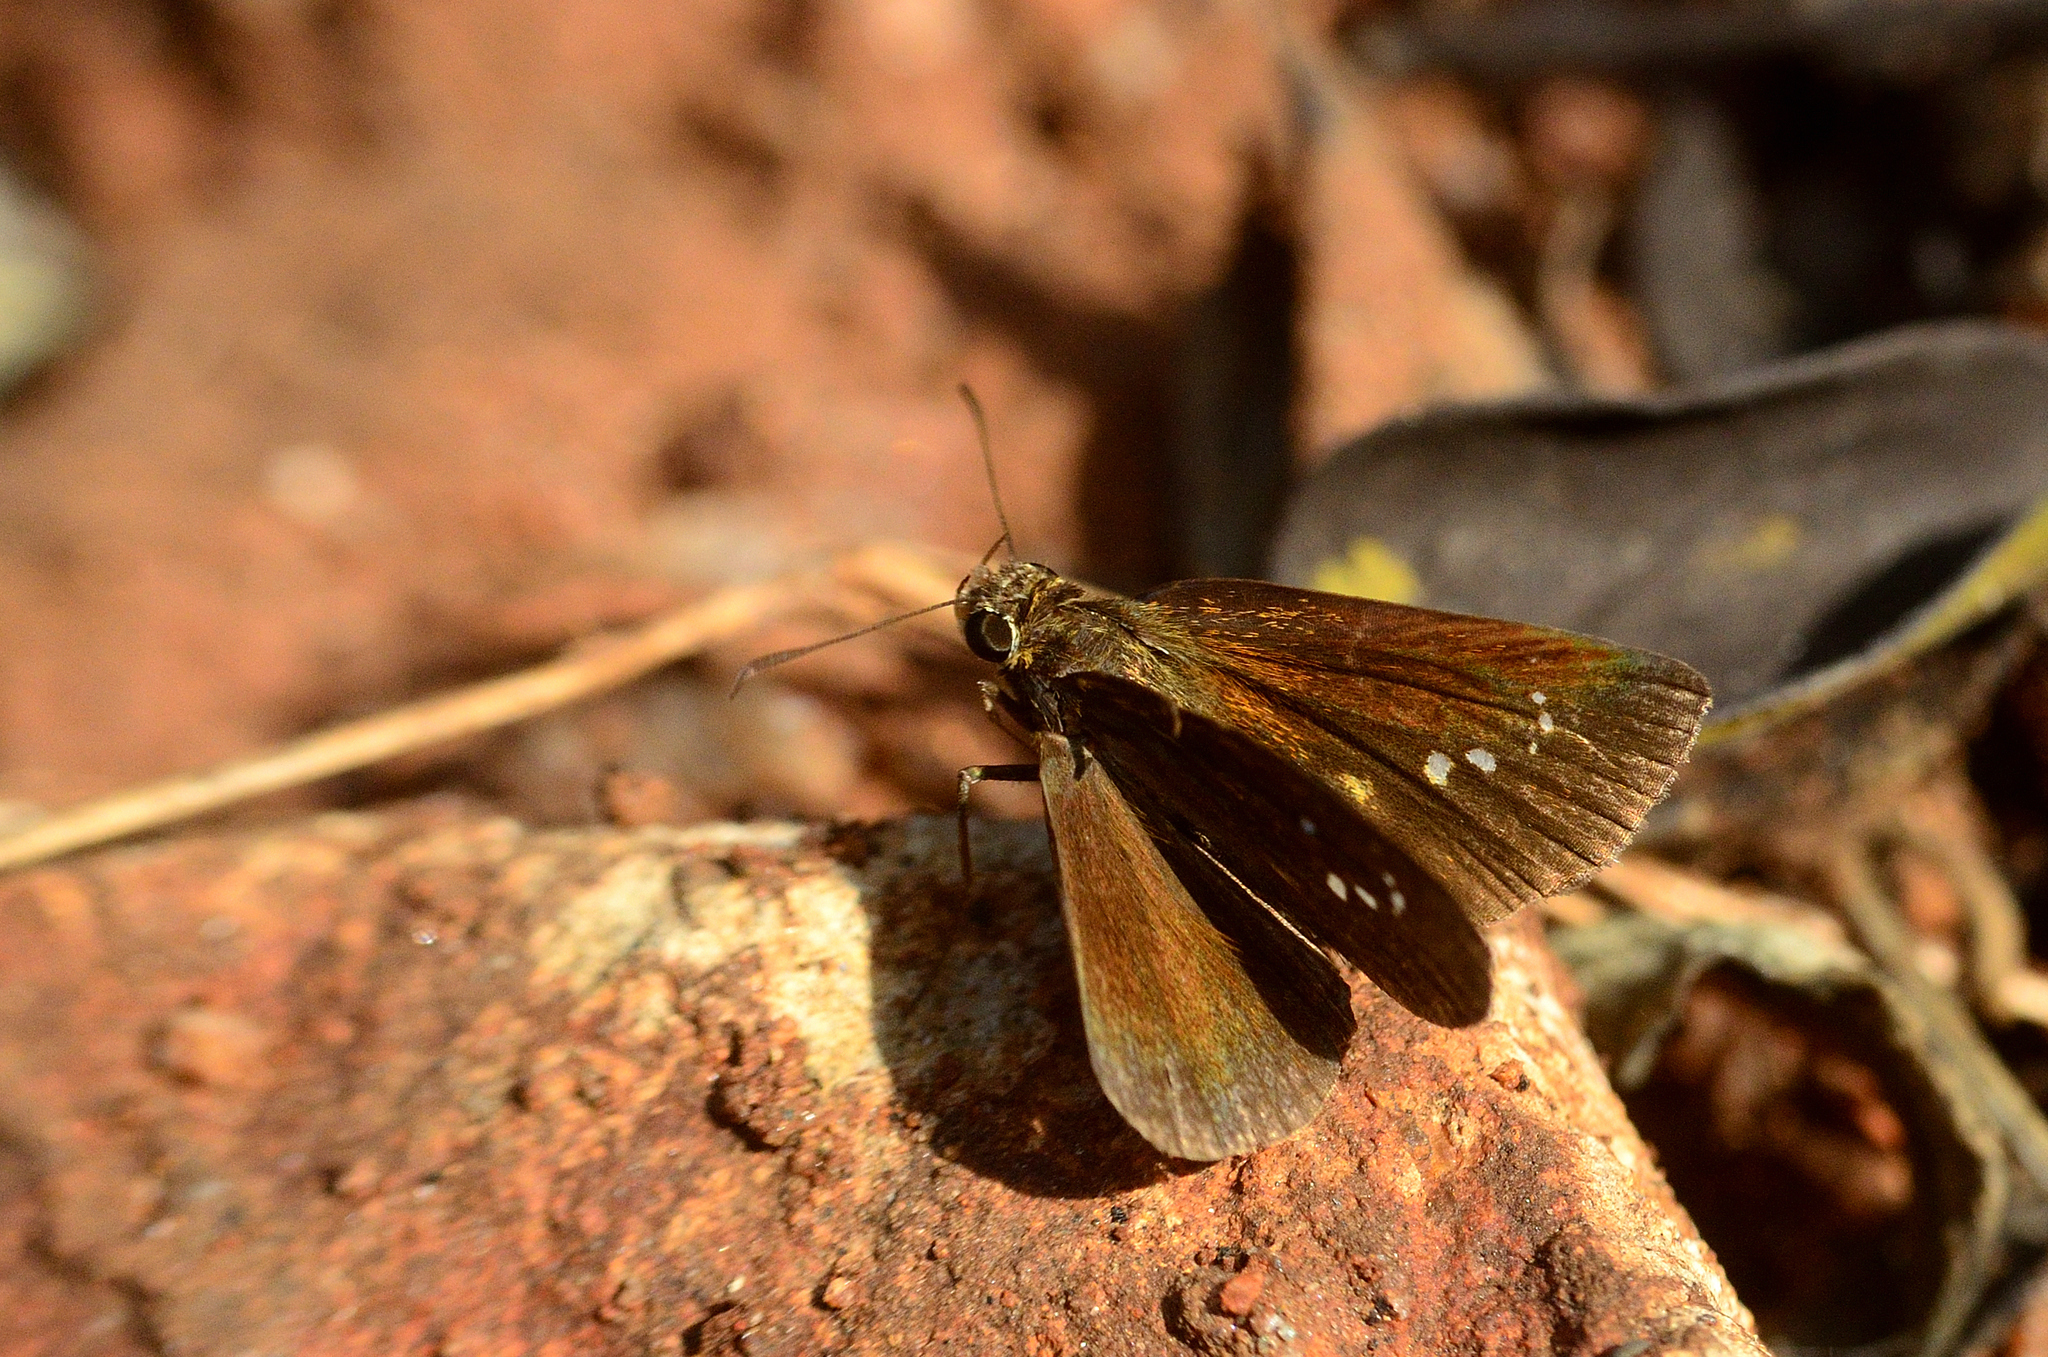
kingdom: Animalia
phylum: Arthropoda
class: Insecta
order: Lepidoptera
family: Hesperiidae
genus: Iambrix
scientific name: Iambrix salsala
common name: Chestnut bob
